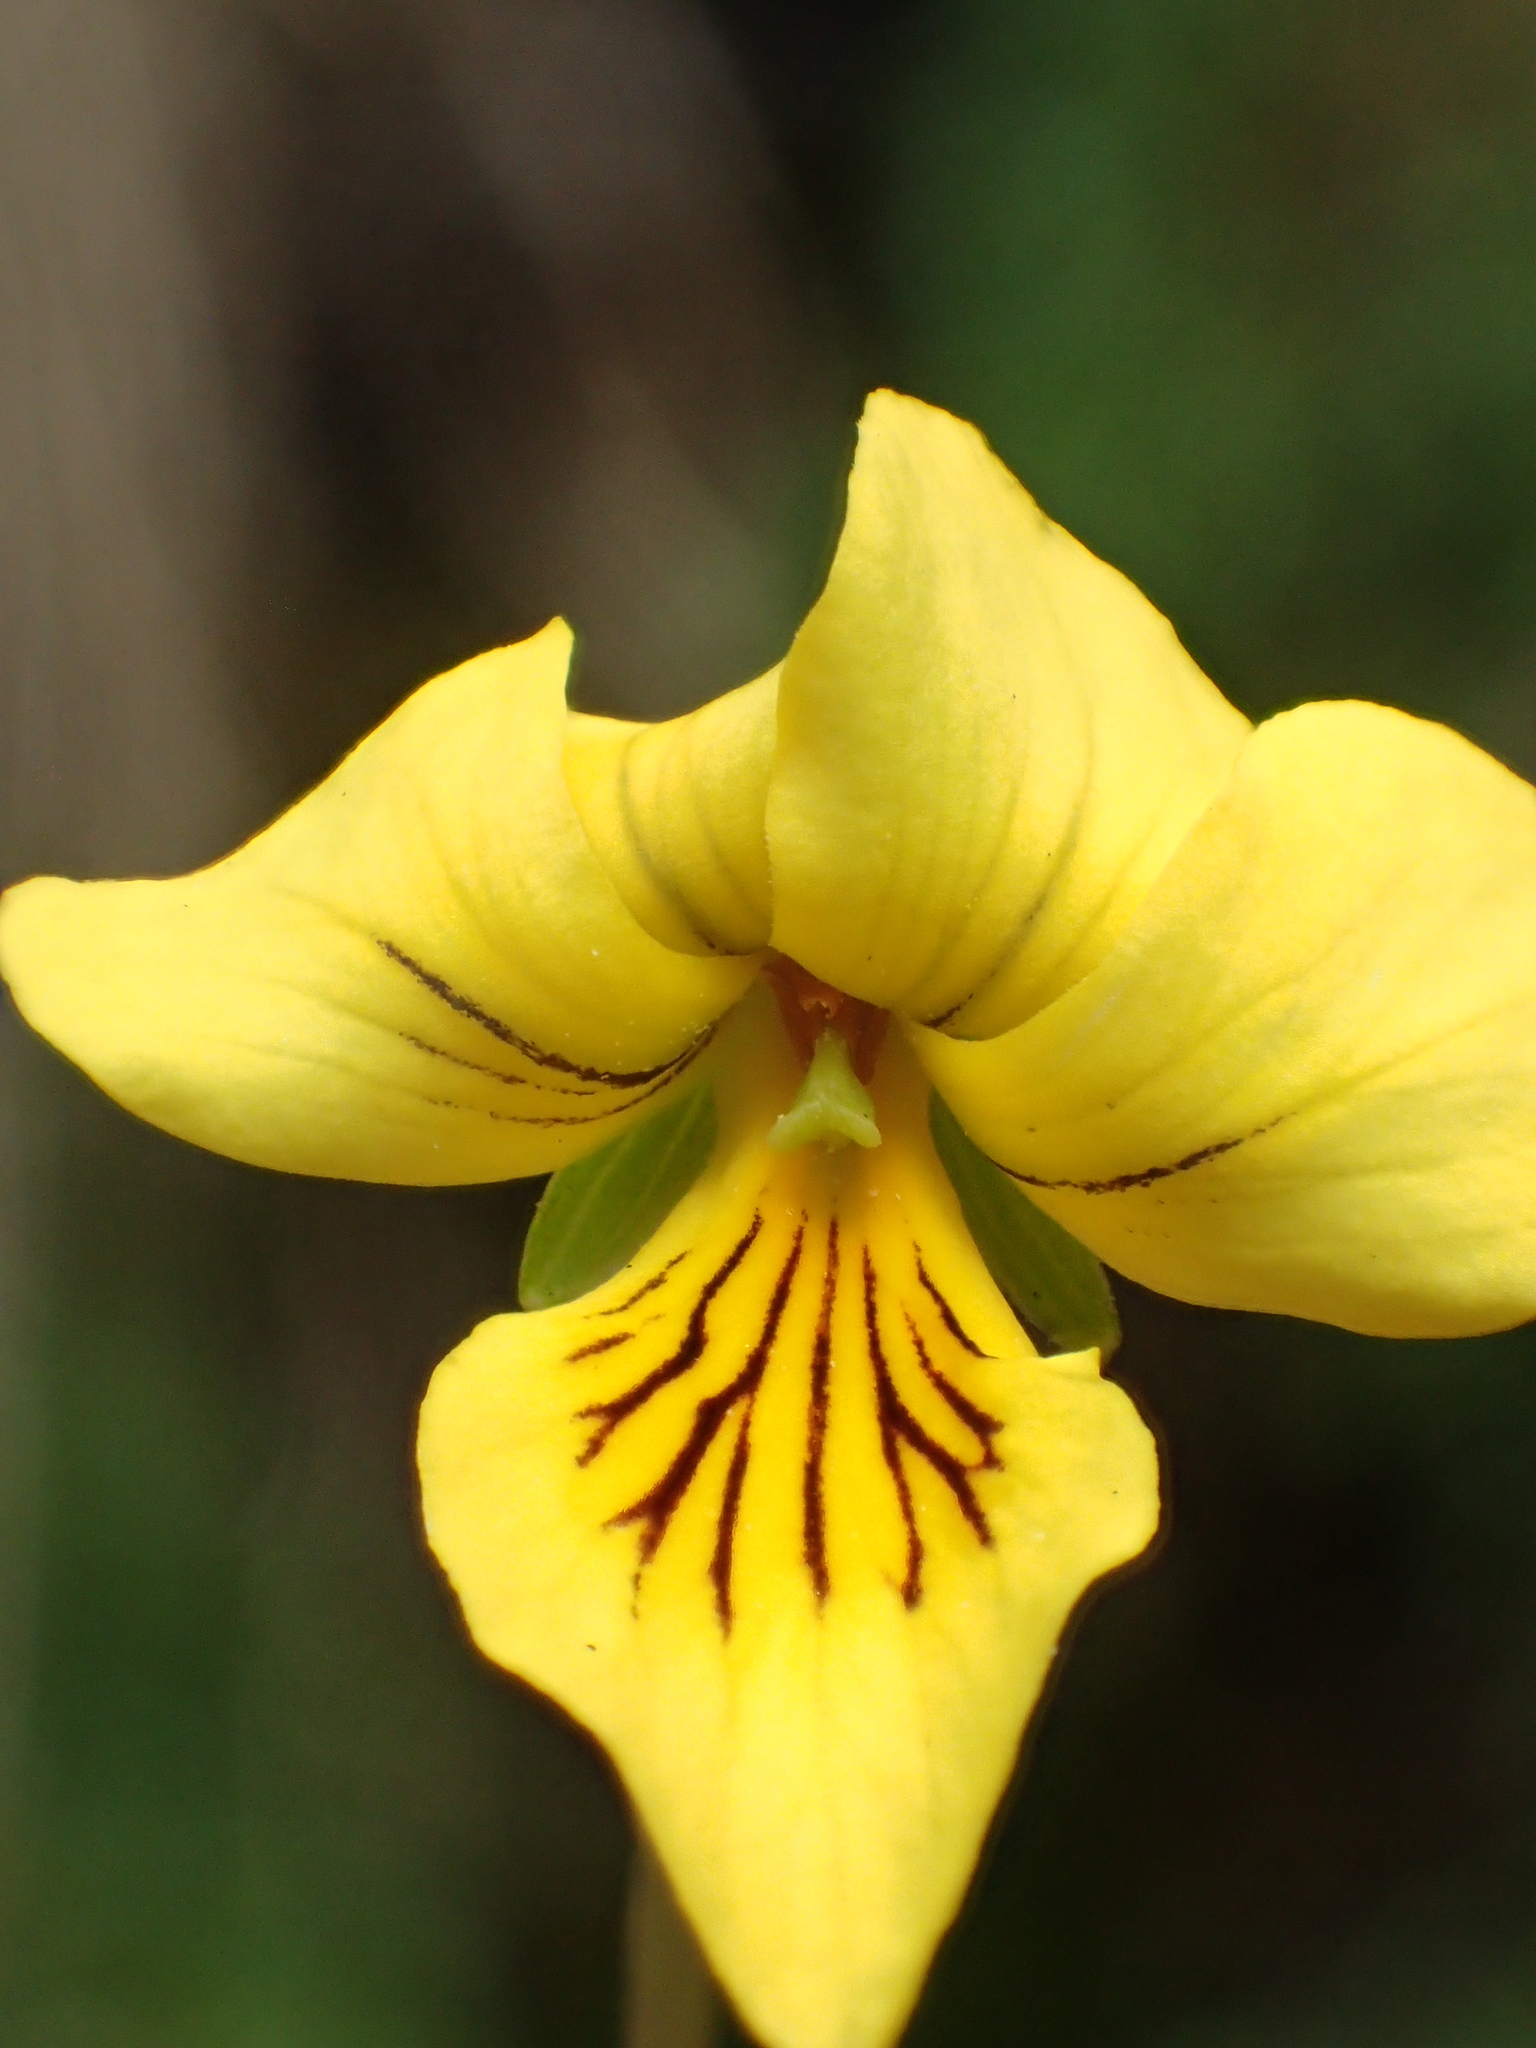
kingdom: Plantae
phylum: Tracheophyta
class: Magnoliopsida
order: Malpighiales
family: Violaceae
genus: Viola
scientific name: Viola biflora
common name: Alpine yellow violet
